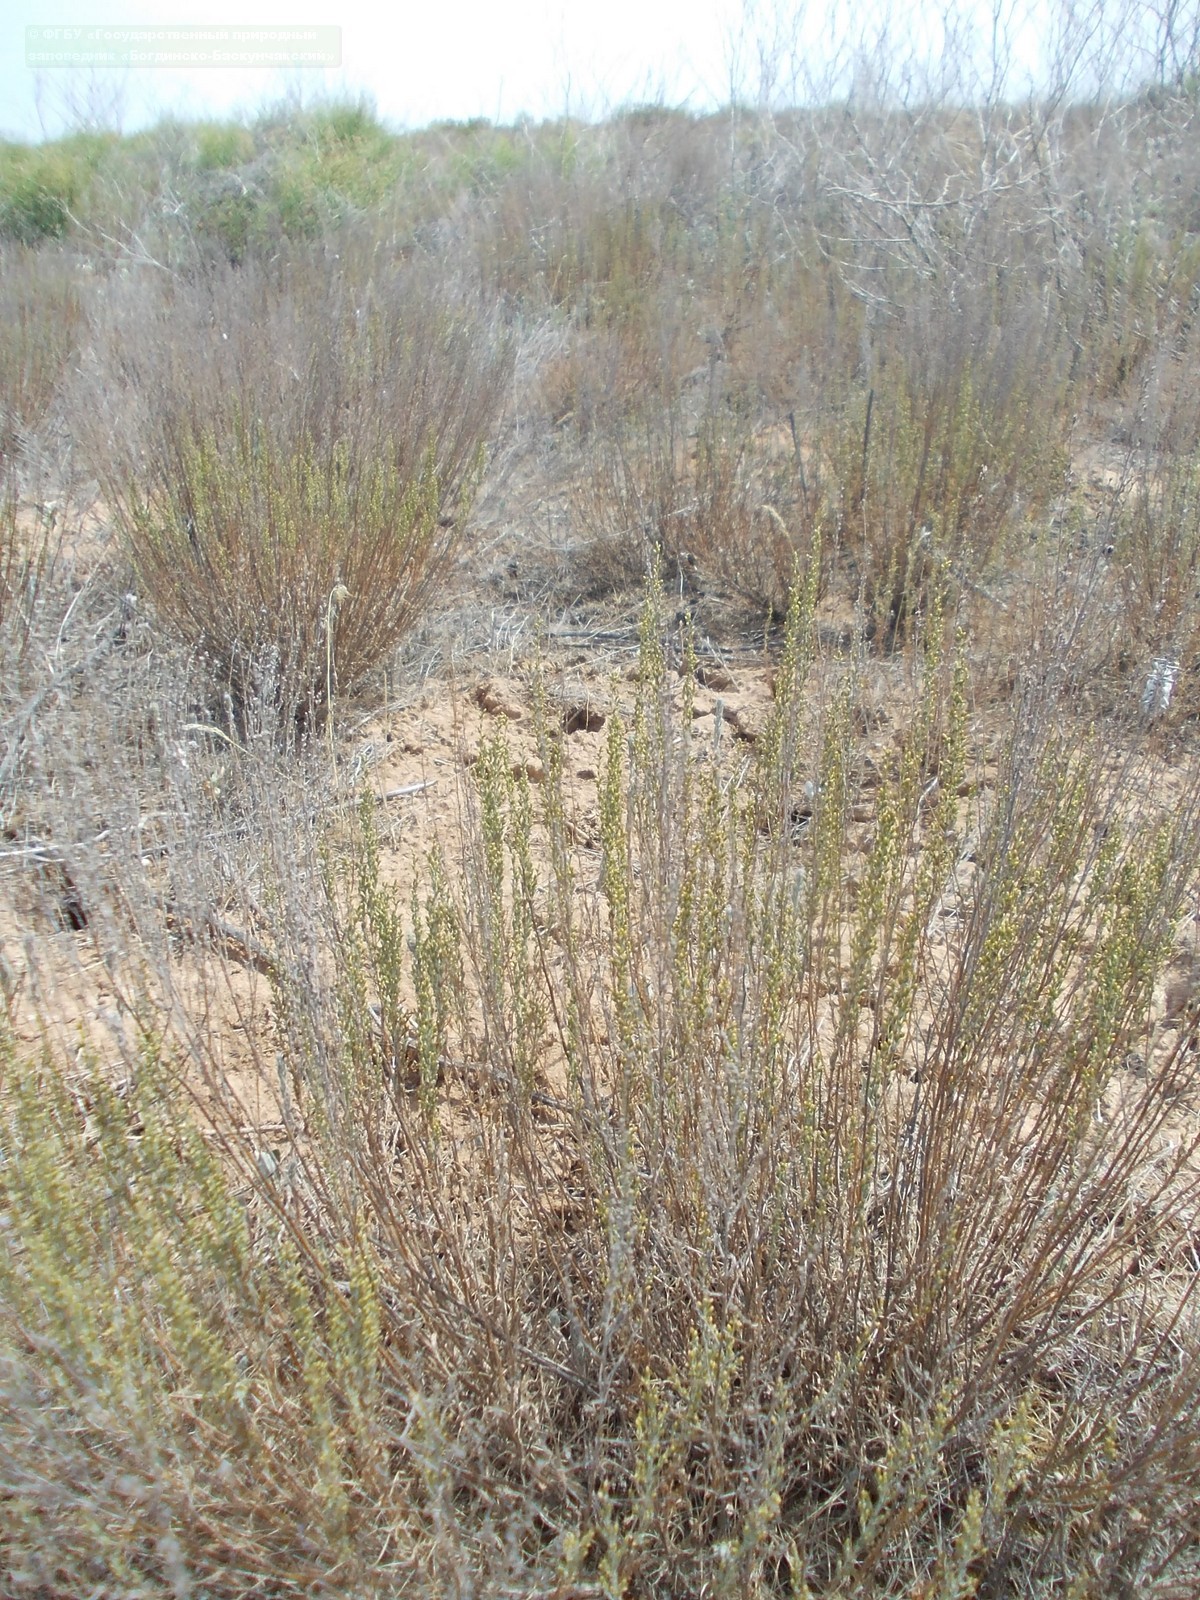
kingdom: Plantae
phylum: Tracheophyta
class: Magnoliopsida
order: Asterales
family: Asteraceae
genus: Artemisia
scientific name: Artemisia pauciflora
